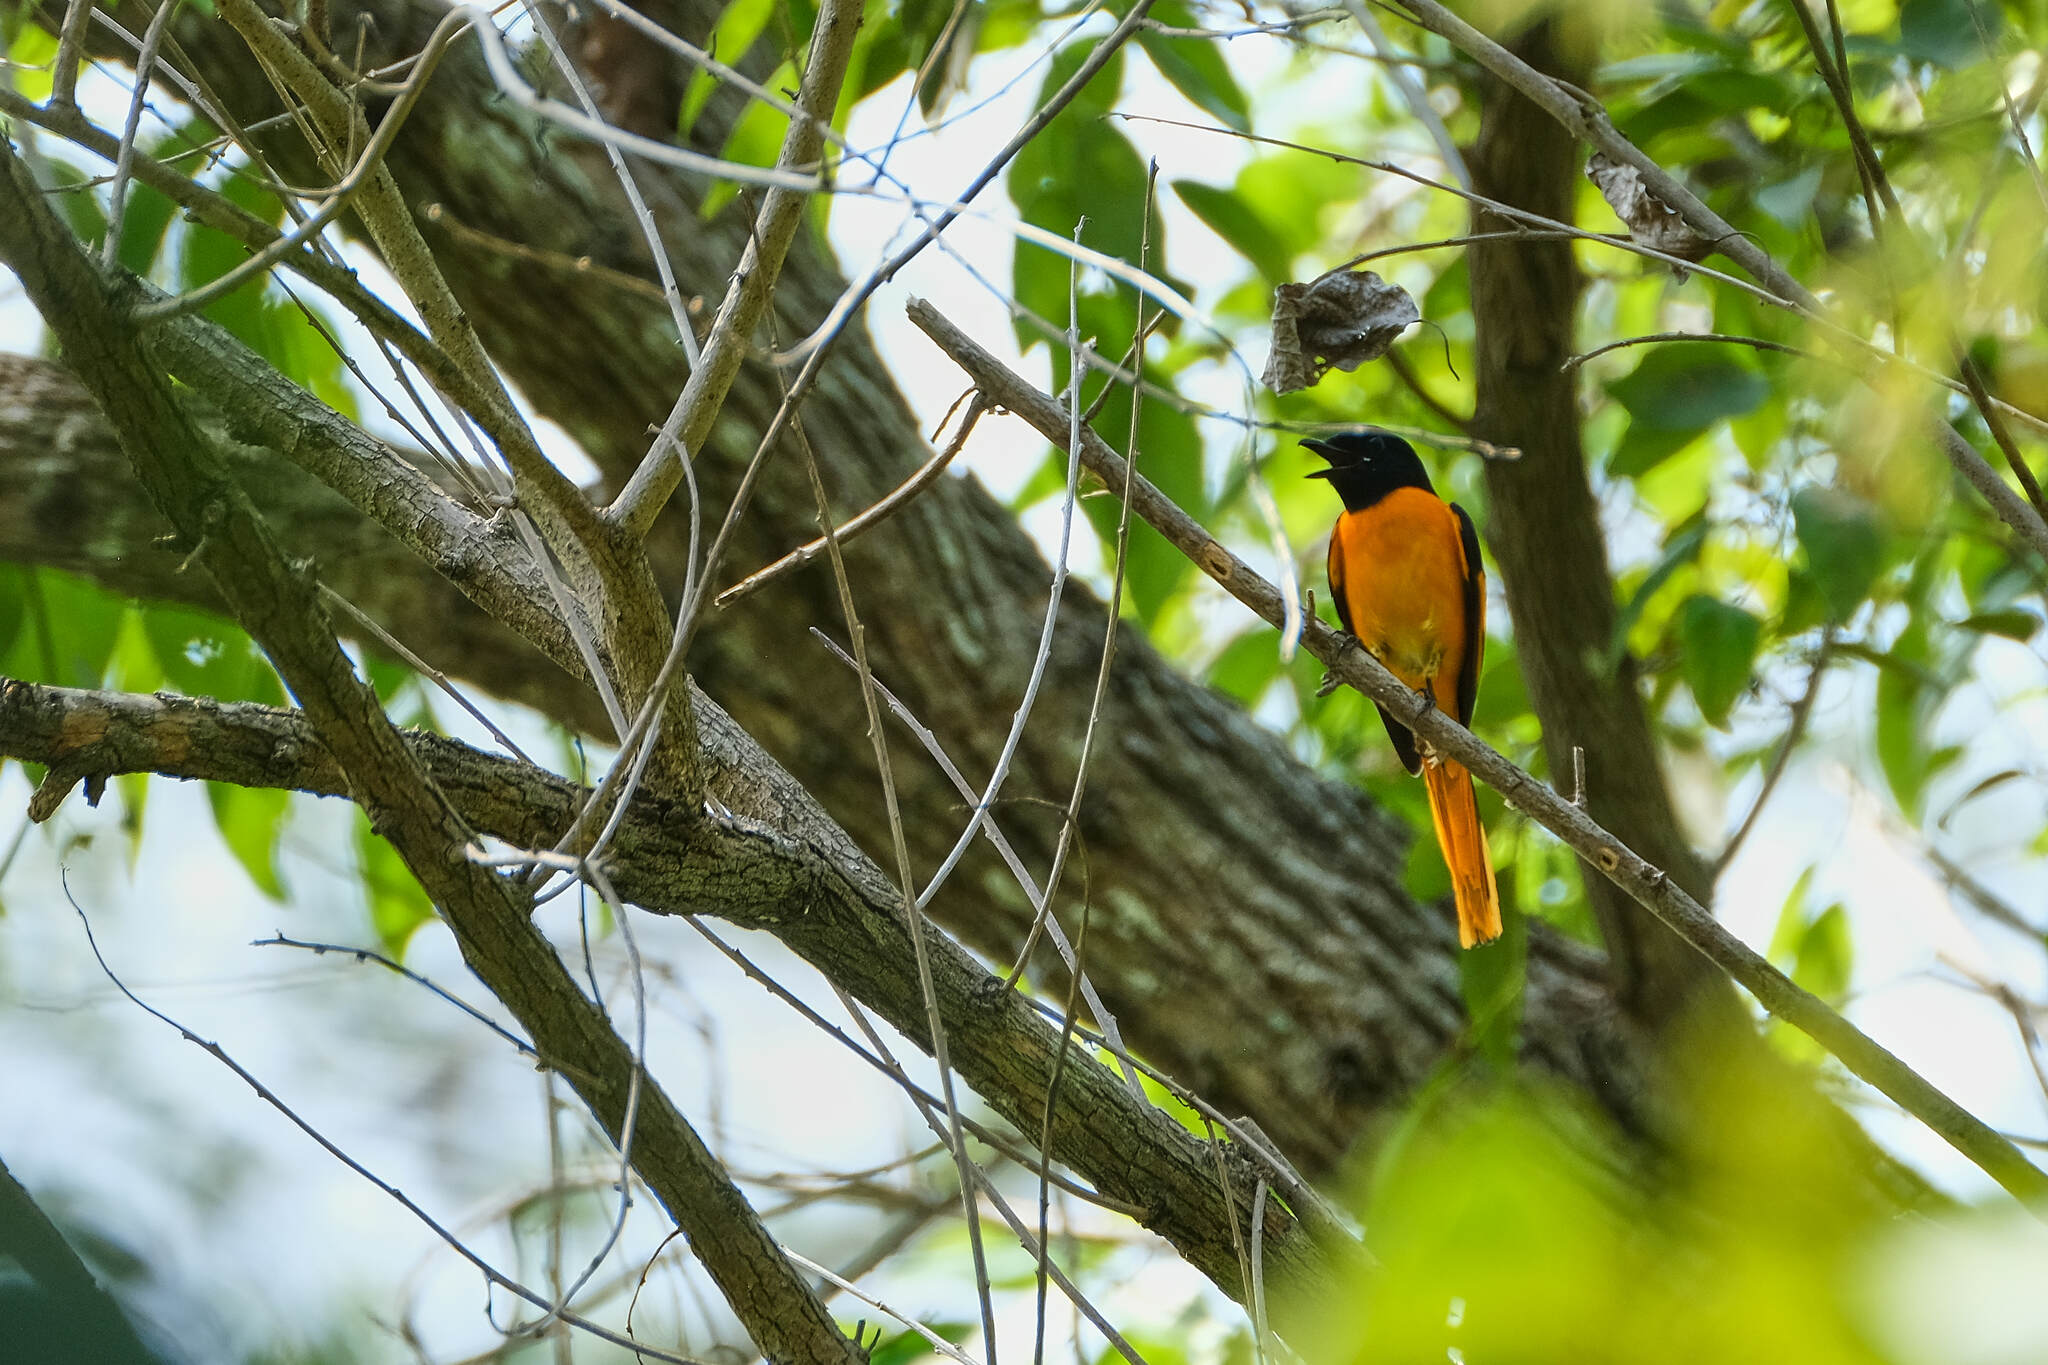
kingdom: Animalia
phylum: Chordata
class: Aves
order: Passeriformes
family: Campephagidae
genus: Pericrocotus
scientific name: Pericrocotus cinnamomeus
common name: Small minivet
